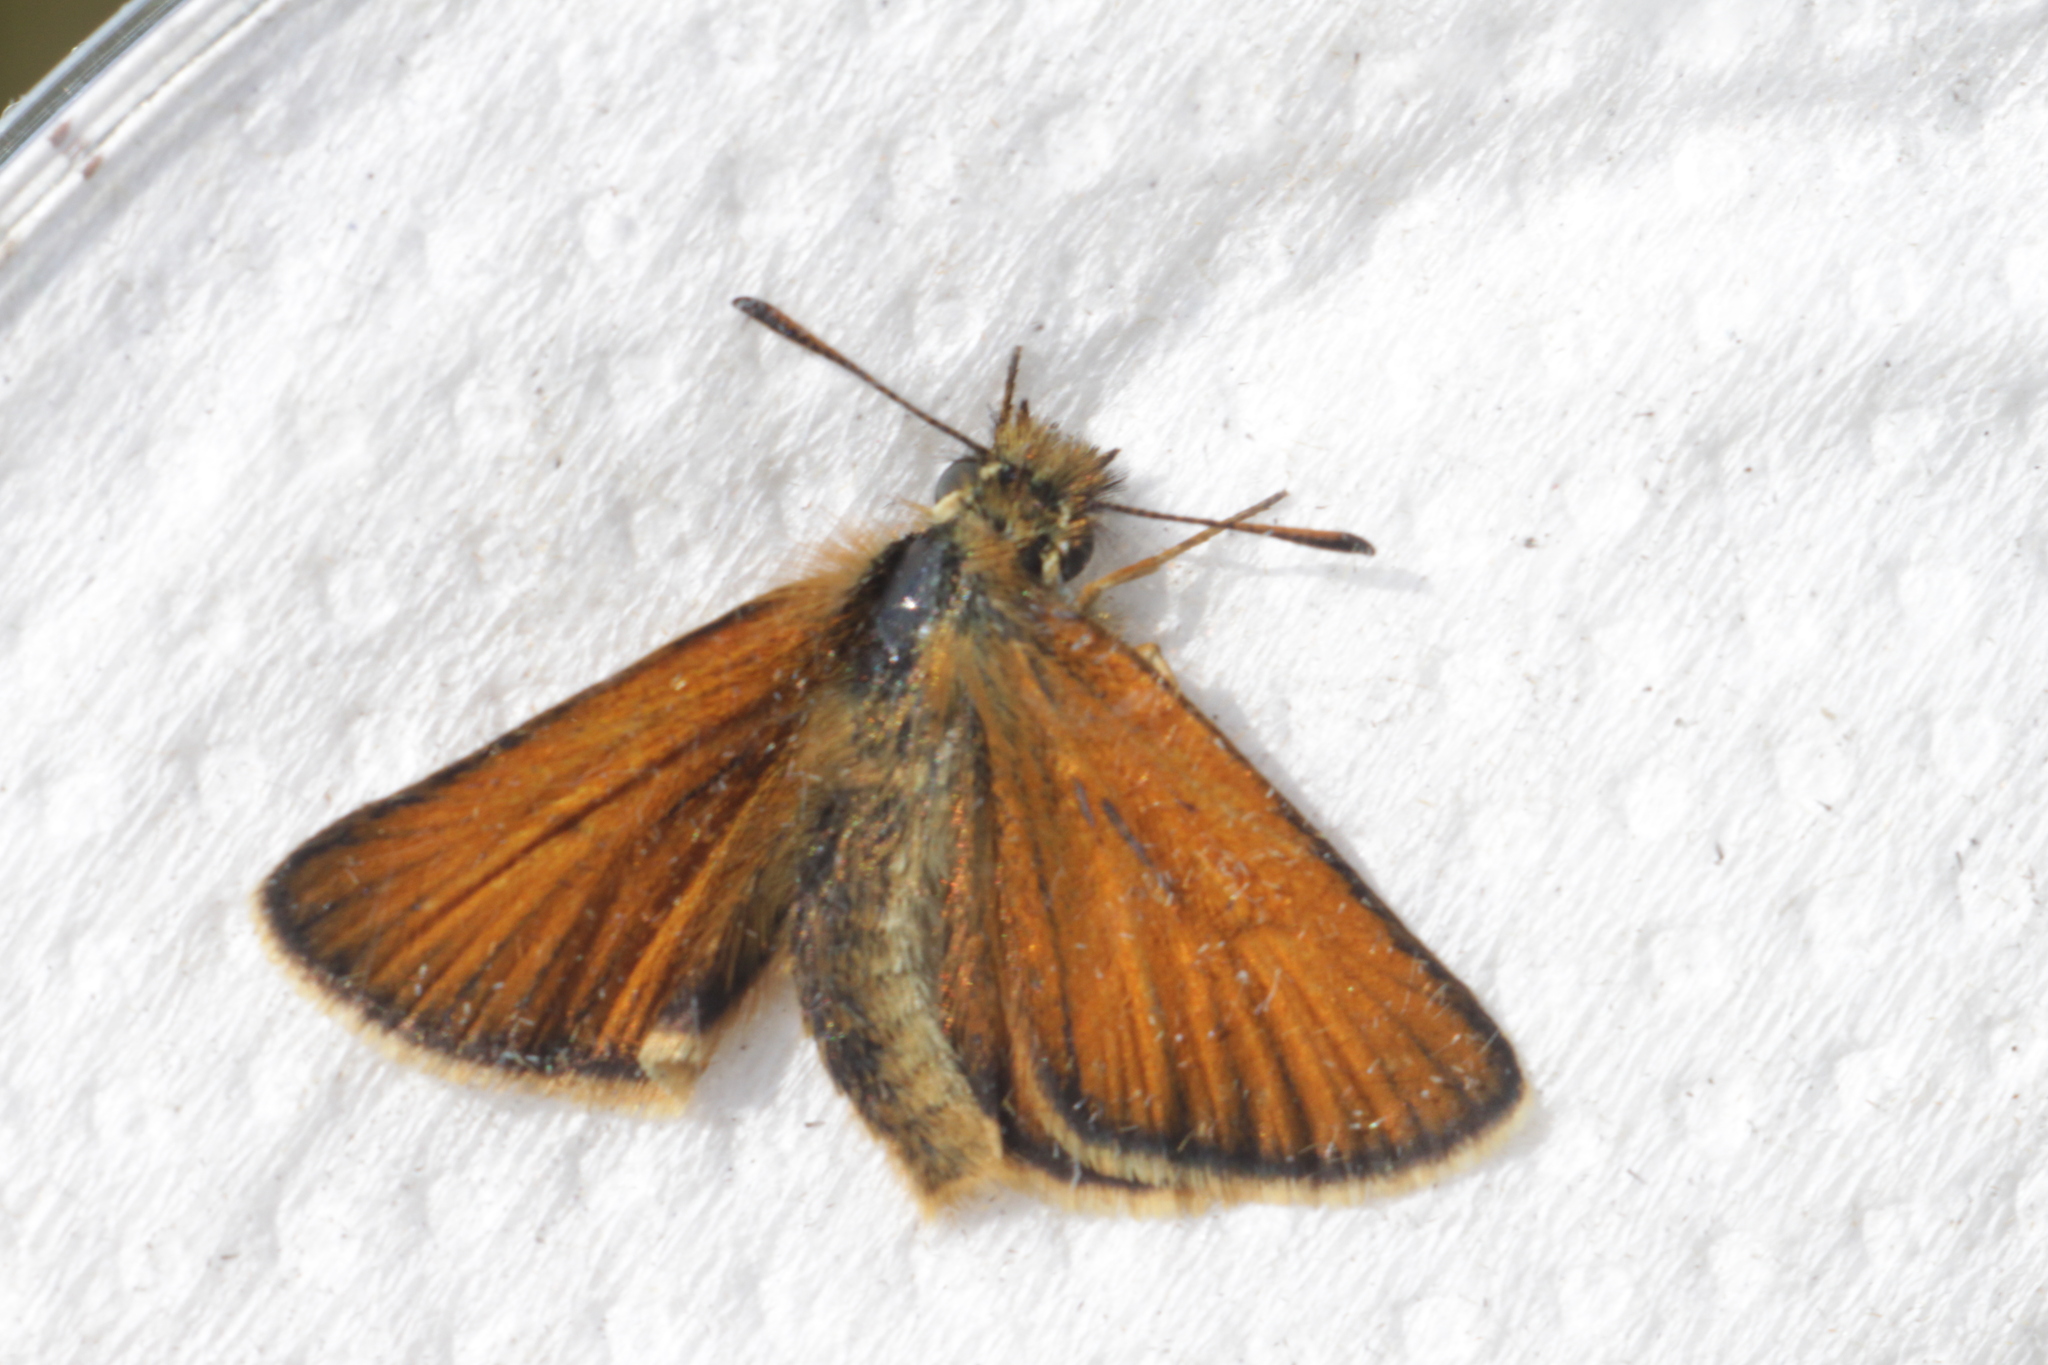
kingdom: Animalia
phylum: Arthropoda
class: Insecta
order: Lepidoptera
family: Hesperiidae
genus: Thymelicus
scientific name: Thymelicus lineola
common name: Essex skipper
